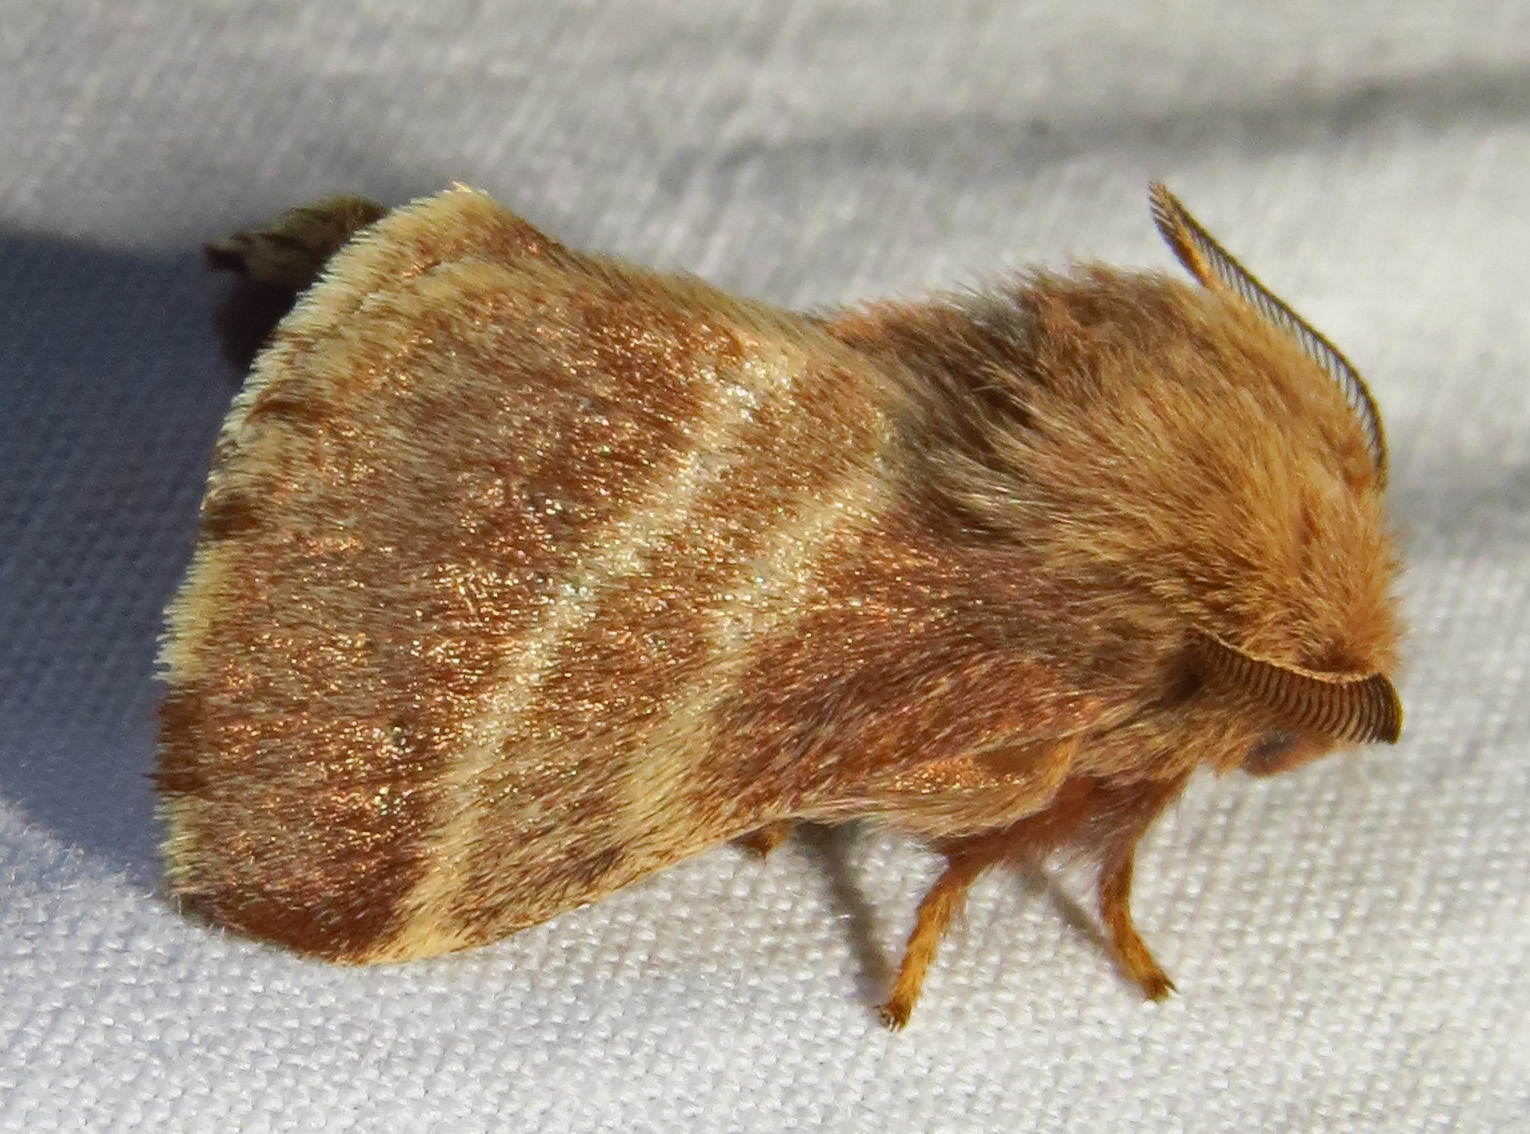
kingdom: Animalia
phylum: Arthropoda
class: Insecta
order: Lepidoptera
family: Lasiocampidae
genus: Malacosoma
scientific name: Malacosoma americana
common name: Eastern tent caterpillar moth
